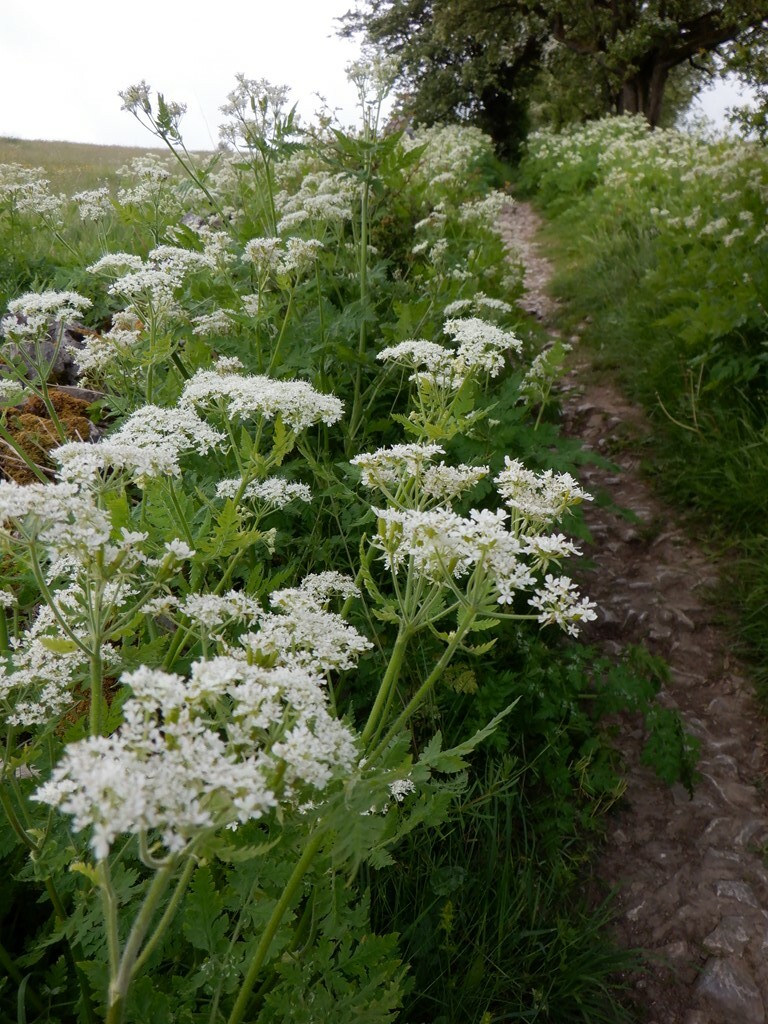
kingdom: Plantae
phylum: Tracheophyta
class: Magnoliopsida
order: Apiales
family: Apiaceae
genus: Myrrhis
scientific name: Myrrhis odorata
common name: Sweet cicely
